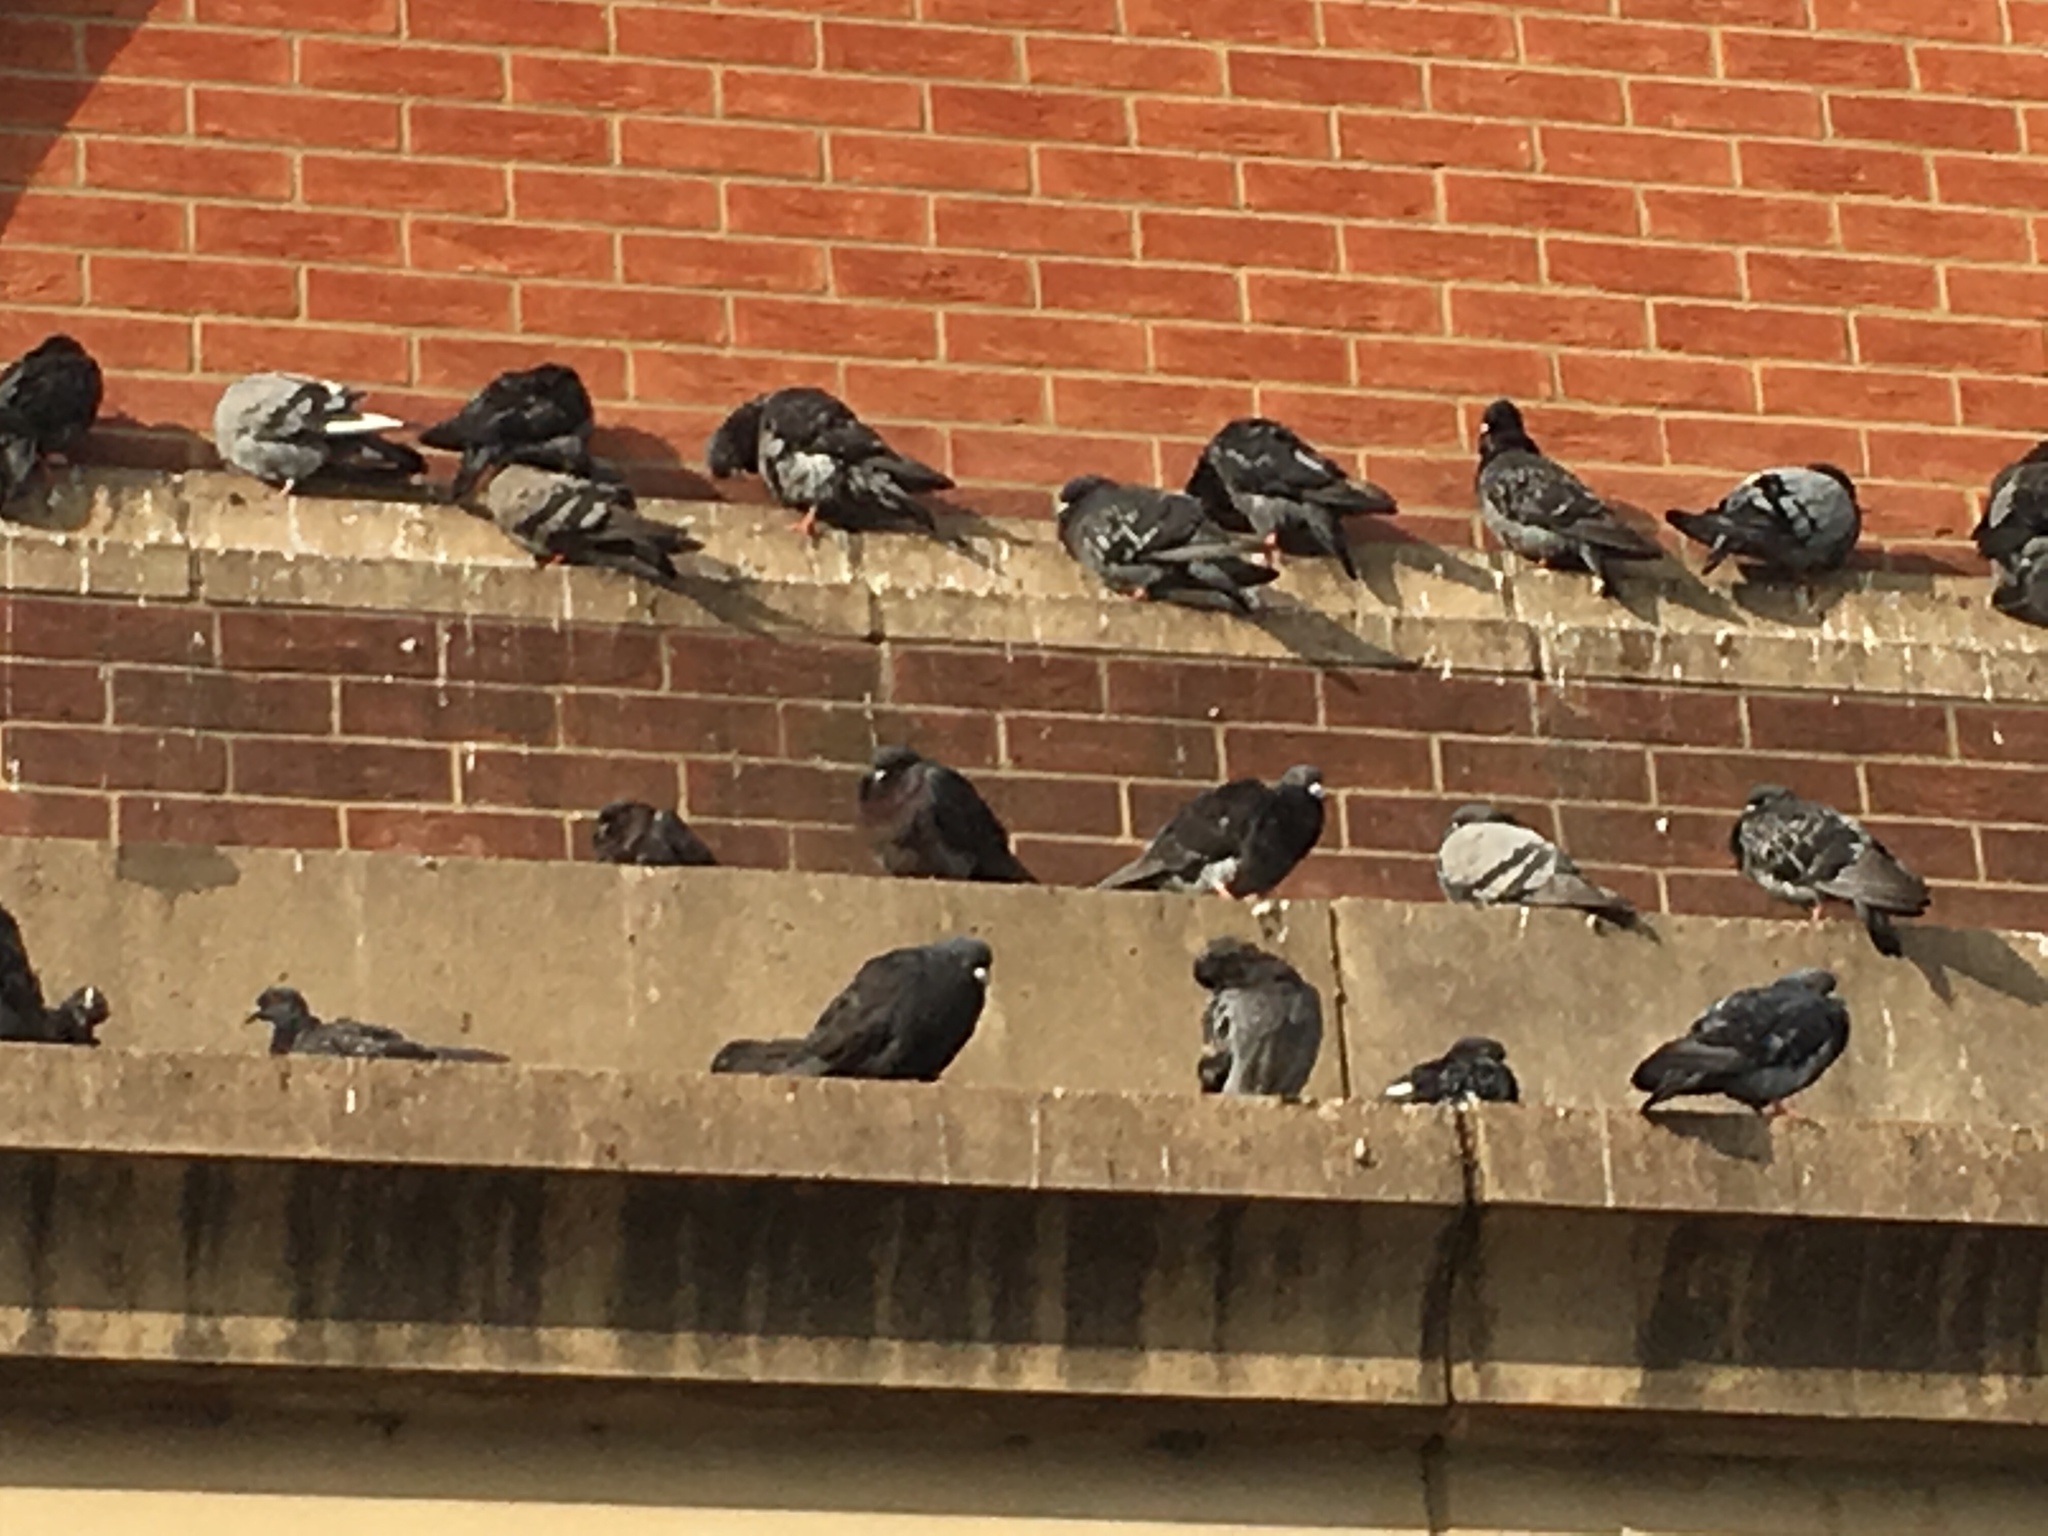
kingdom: Animalia
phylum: Chordata
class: Aves
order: Columbiformes
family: Columbidae
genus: Columba
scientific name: Columba livia
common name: Rock pigeon
